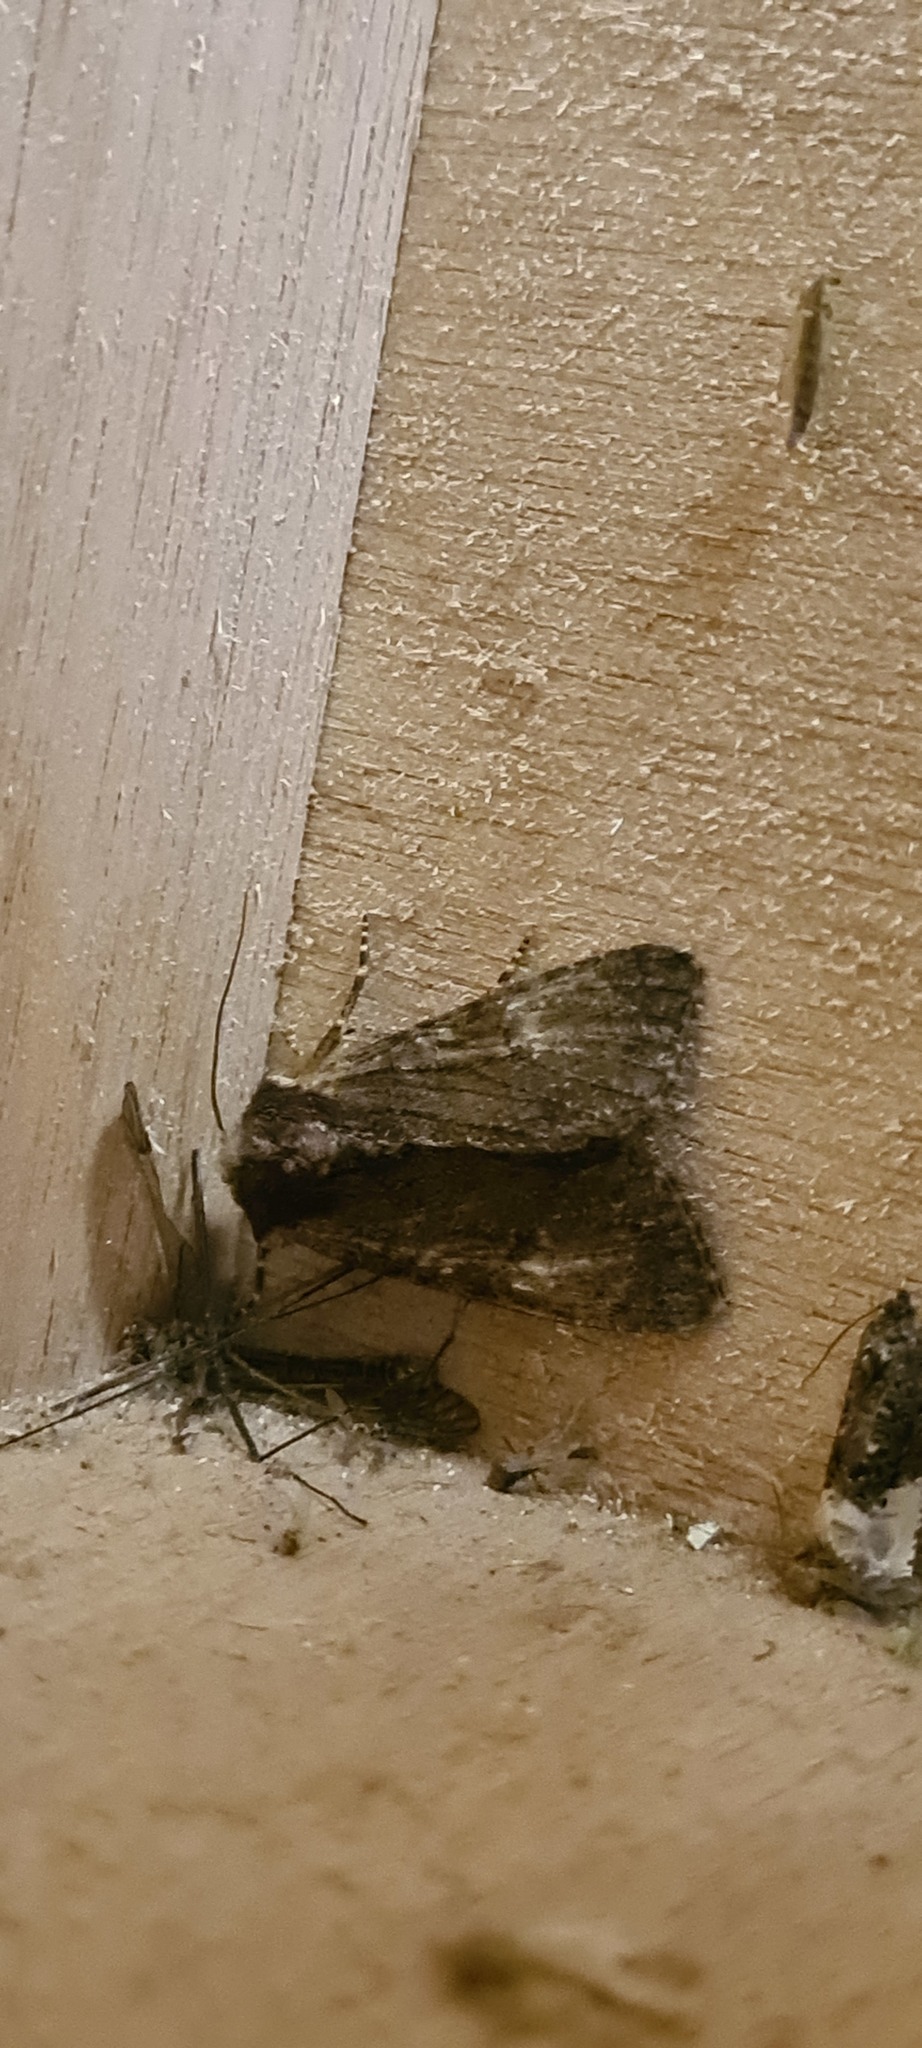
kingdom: Animalia
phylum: Arthropoda
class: Insecta
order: Lepidoptera
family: Noctuidae
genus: Apamea
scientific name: Apamea crenata
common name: Clouded-bordered brindle
